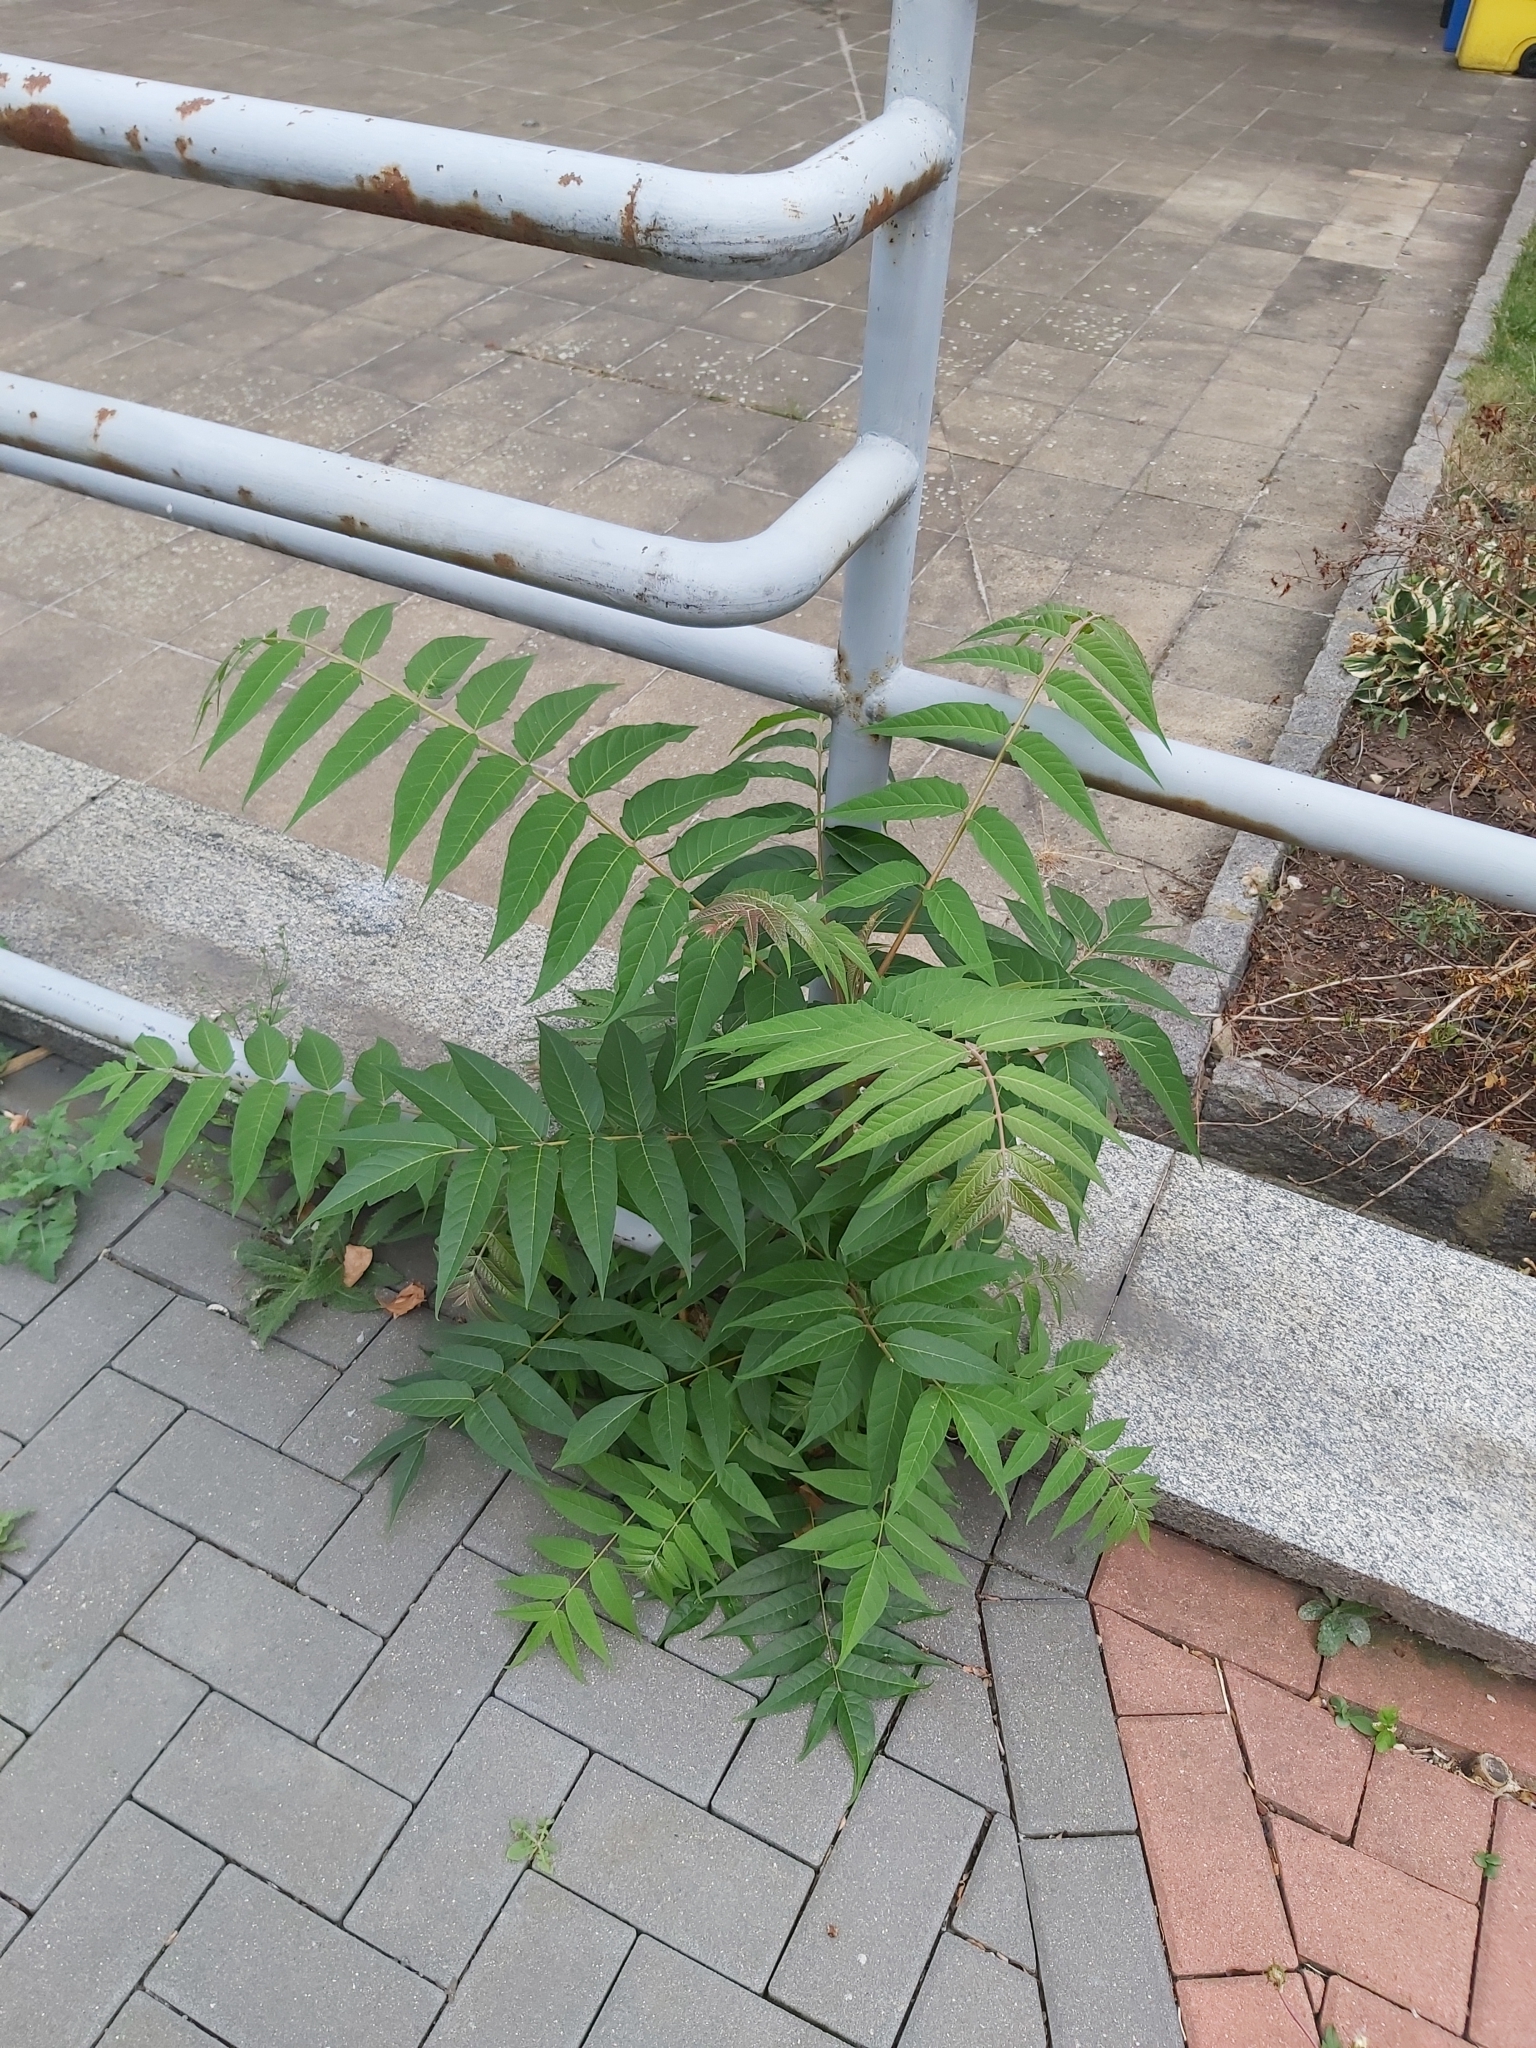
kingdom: Plantae
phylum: Tracheophyta
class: Magnoliopsida
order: Sapindales
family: Simaroubaceae
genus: Ailanthus
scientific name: Ailanthus altissima
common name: Tree-of-heaven
